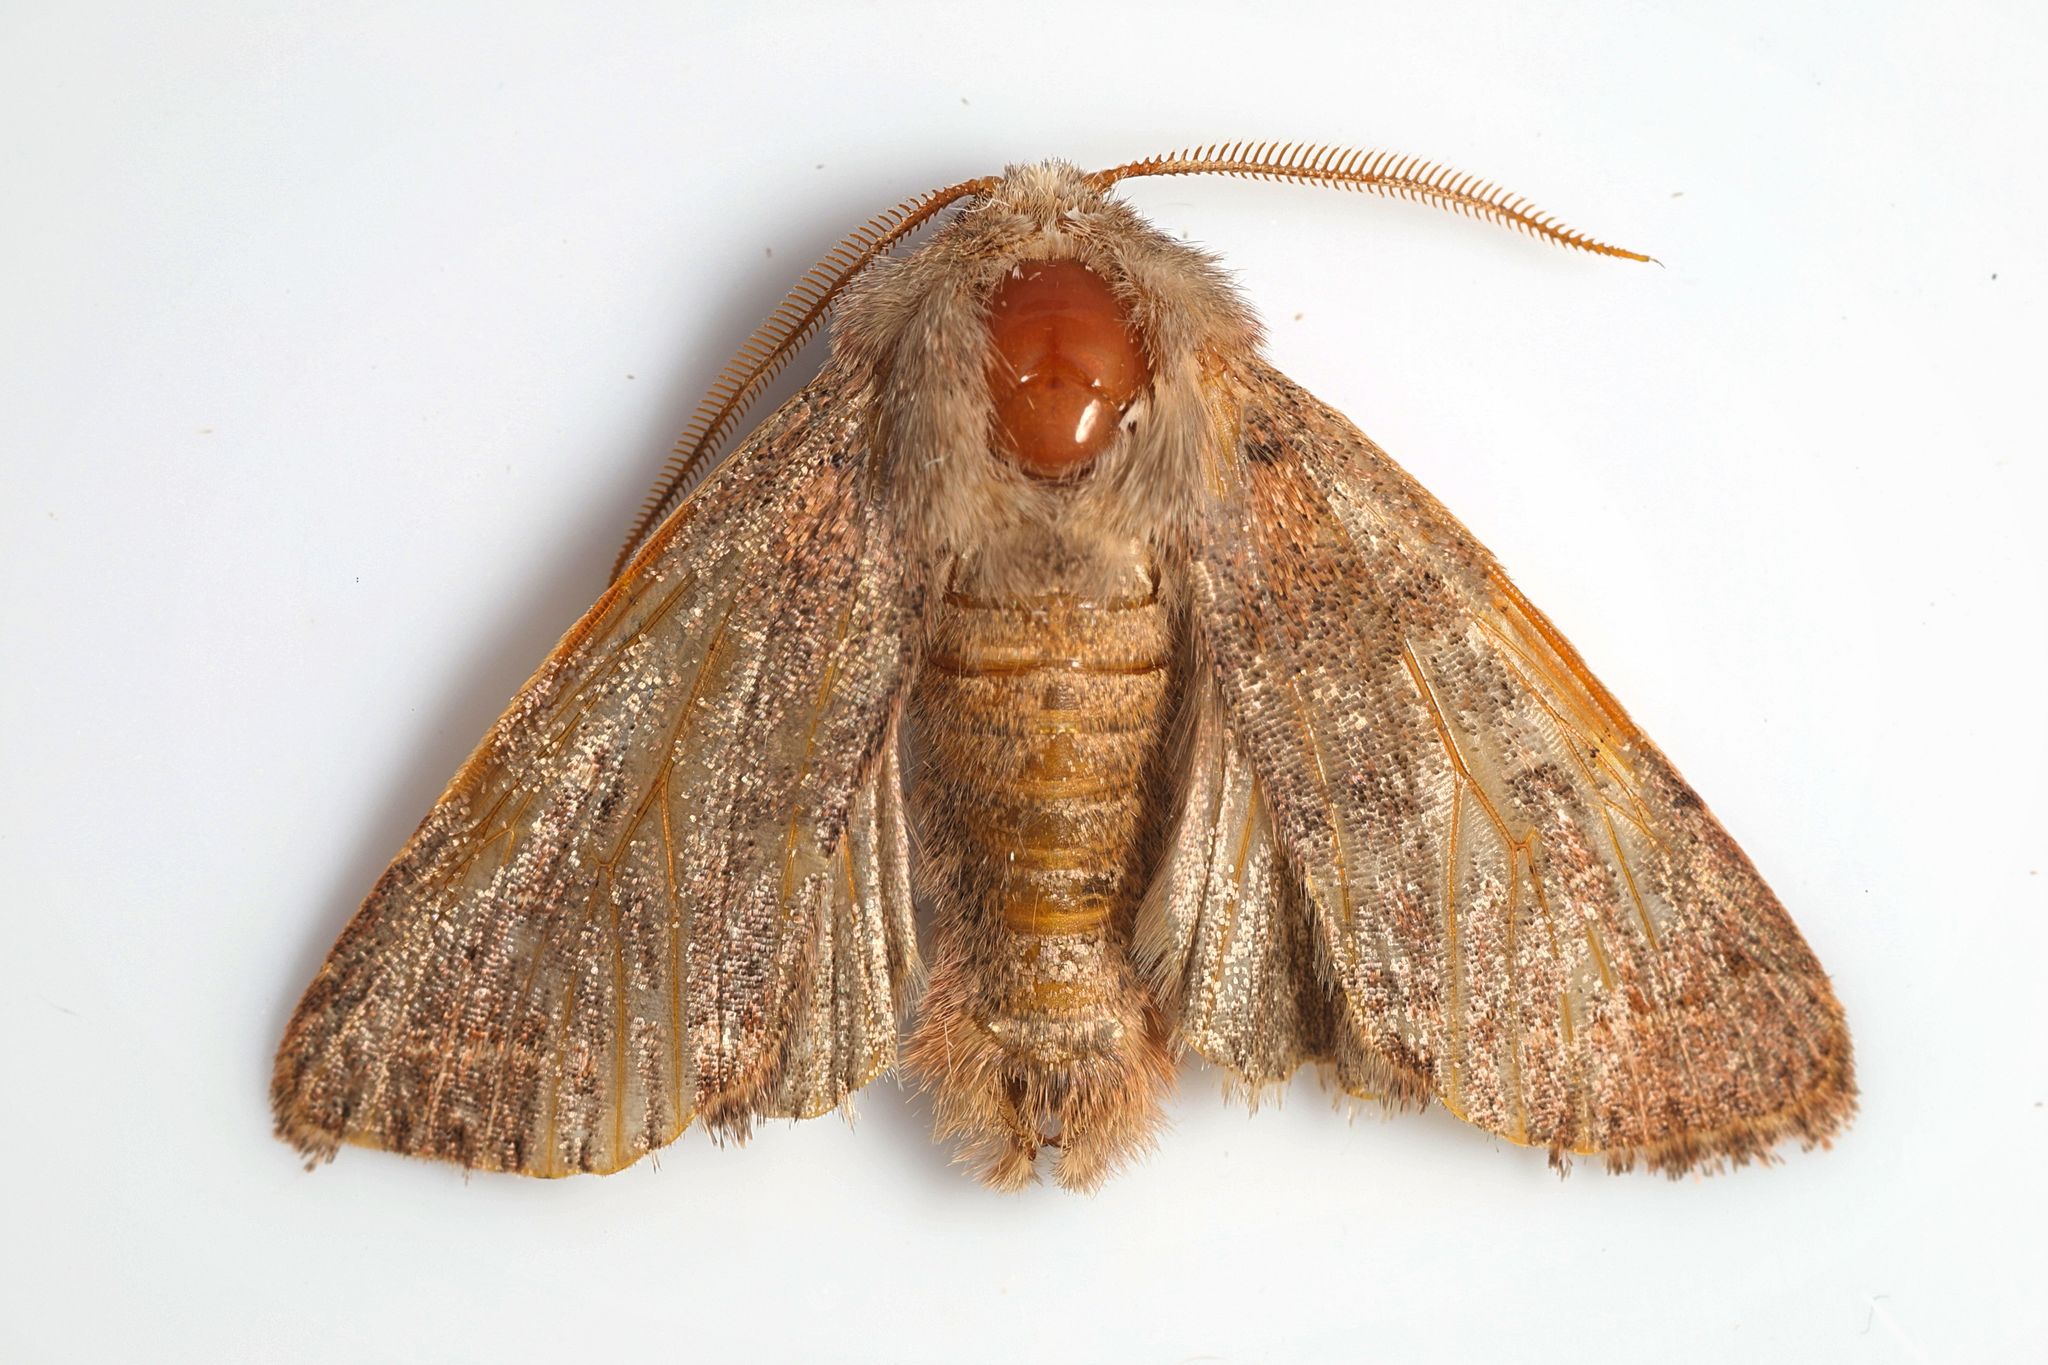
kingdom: Animalia
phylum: Arthropoda
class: Insecta
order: Lepidoptera
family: Noctuidae
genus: Orthosia
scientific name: Orthosia cerasi
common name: Common quaker
